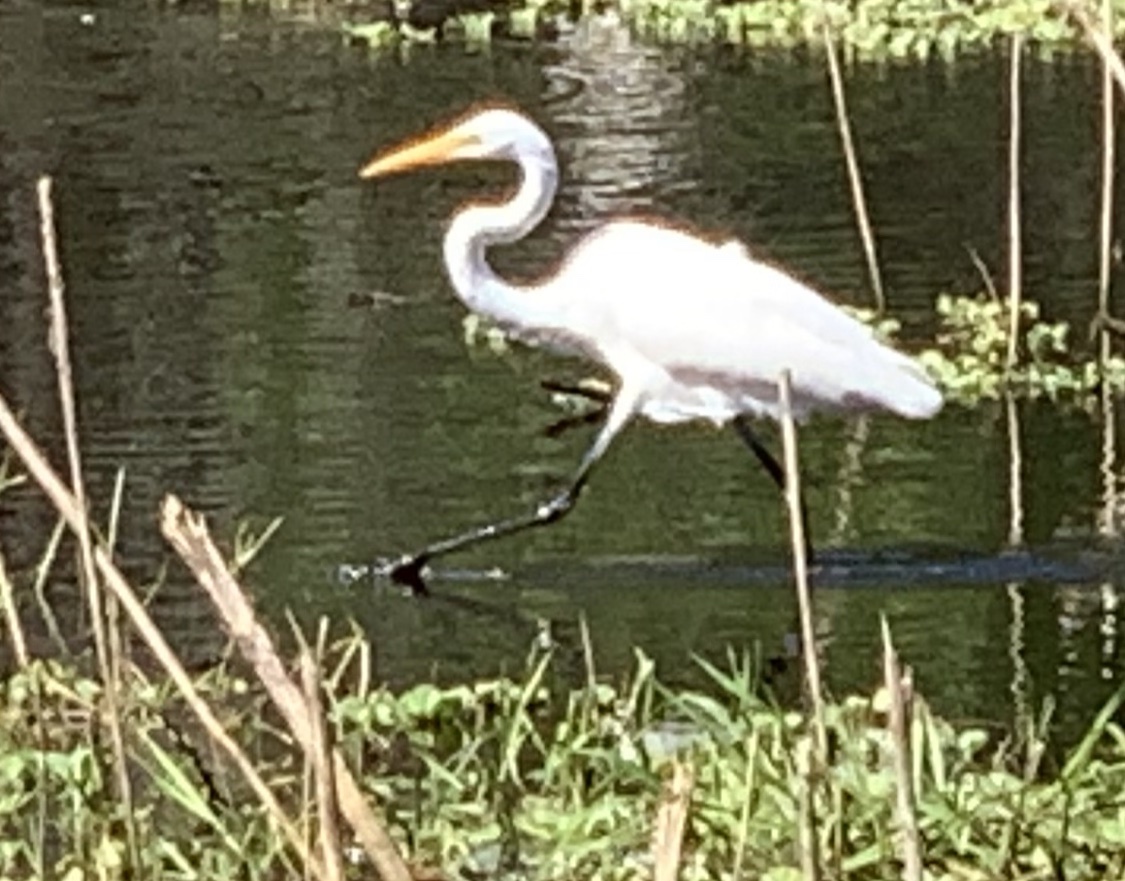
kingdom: Animalia
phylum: Chordata
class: Aves
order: Pelecaniformes
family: Ardeidae
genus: Ardea
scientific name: Ardea alba
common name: Great egret
